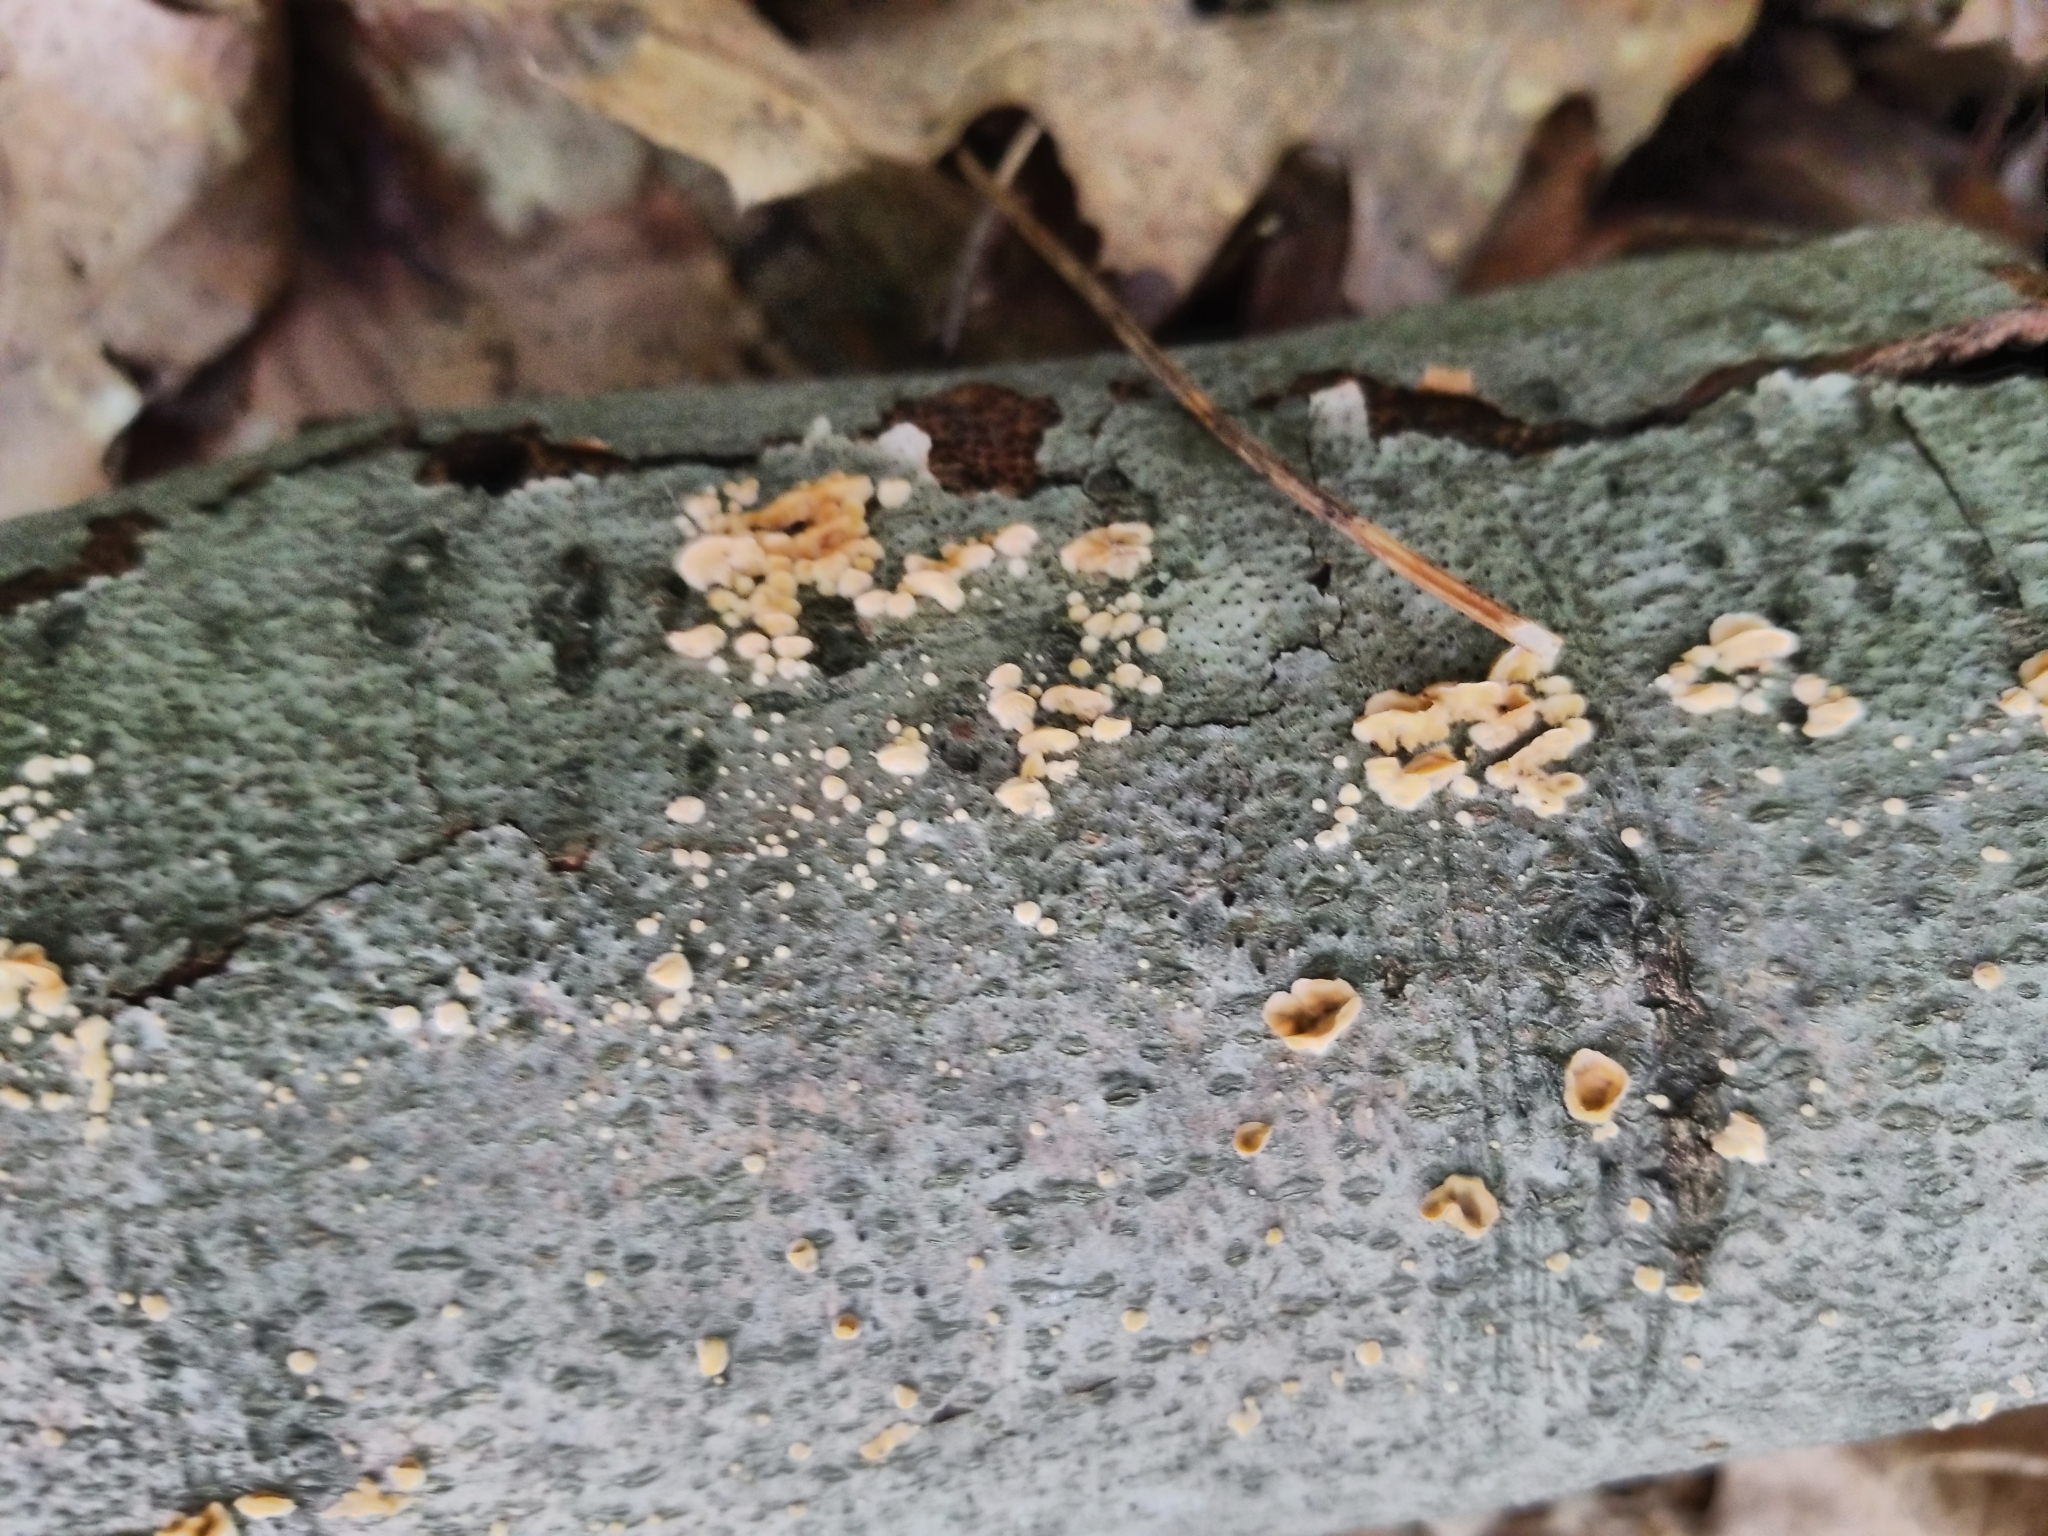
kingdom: Fungi
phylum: Basidiomycota
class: Agaricomycetes
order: Russulales
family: Stereaceae
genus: Stereum
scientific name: Stereum complicatum
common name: Crowded parchment
